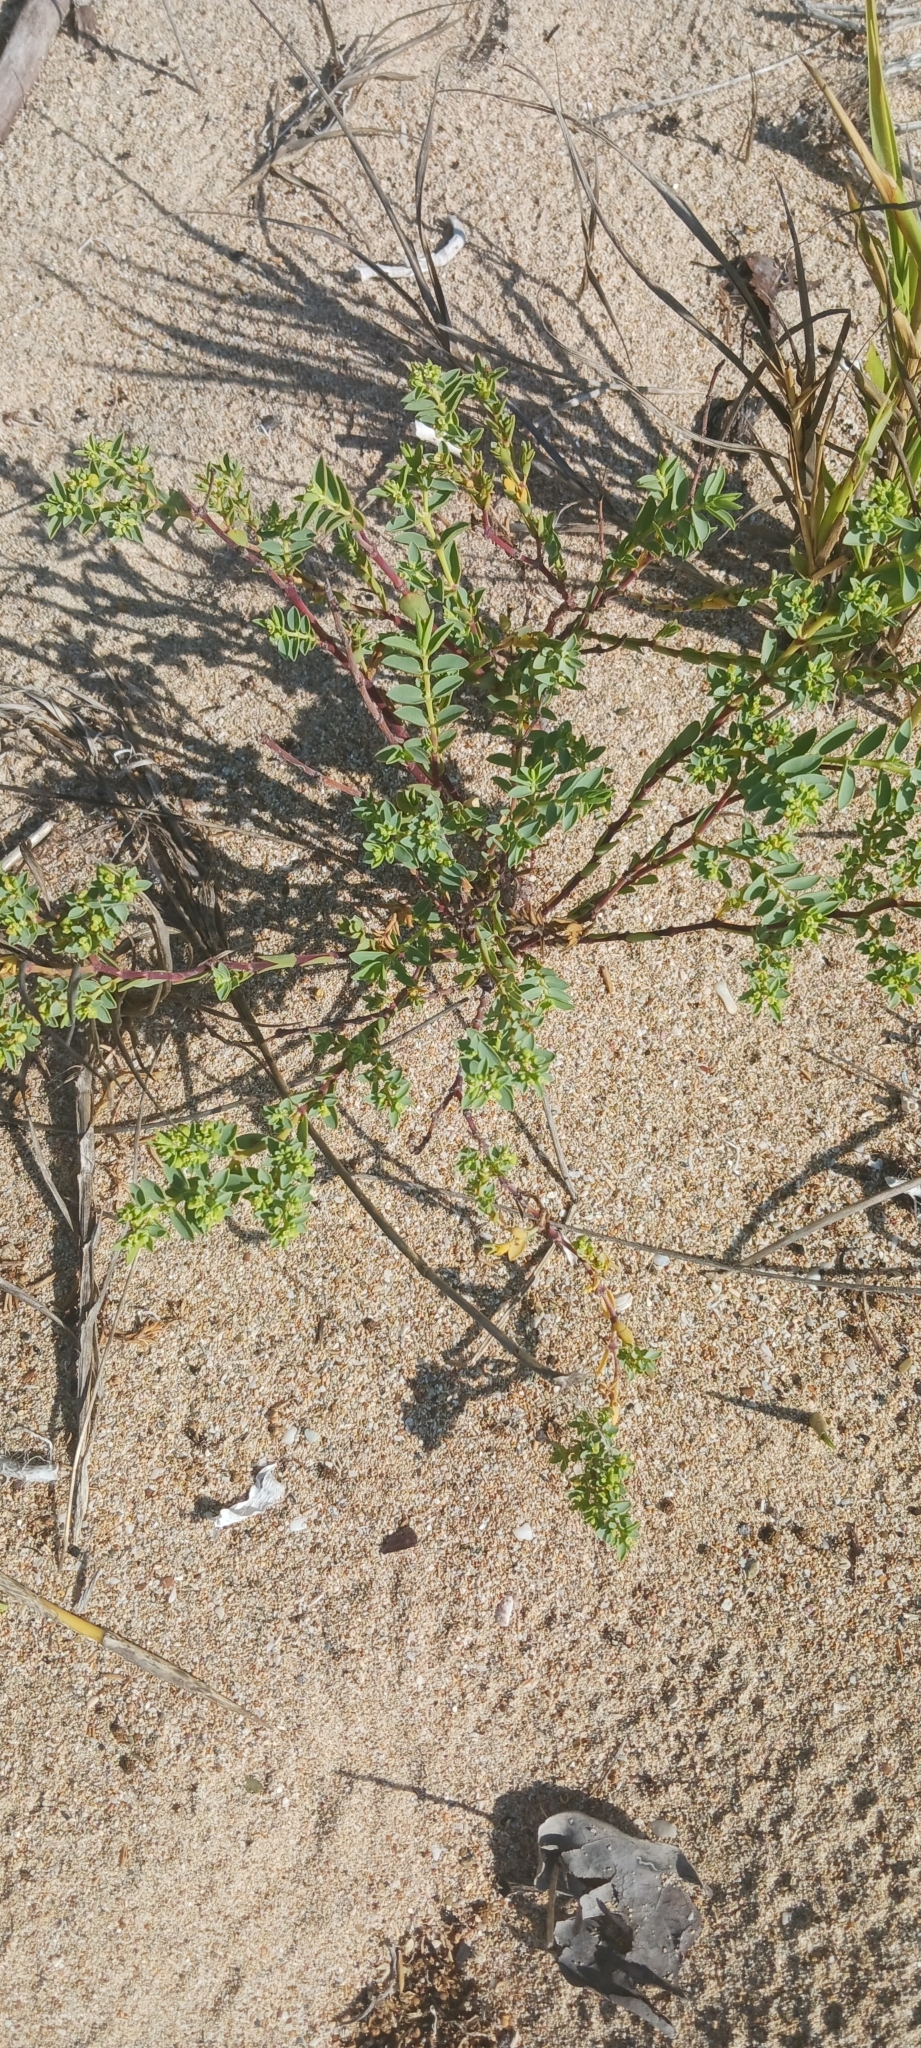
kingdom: Plantae
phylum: Tracheophyta
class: Magnoliopsida
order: Malpighiales
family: Euphorbiaceae
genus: Euphorbia
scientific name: Euphorbia mesembryanthemifolia
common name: Coastal beach sandmat
